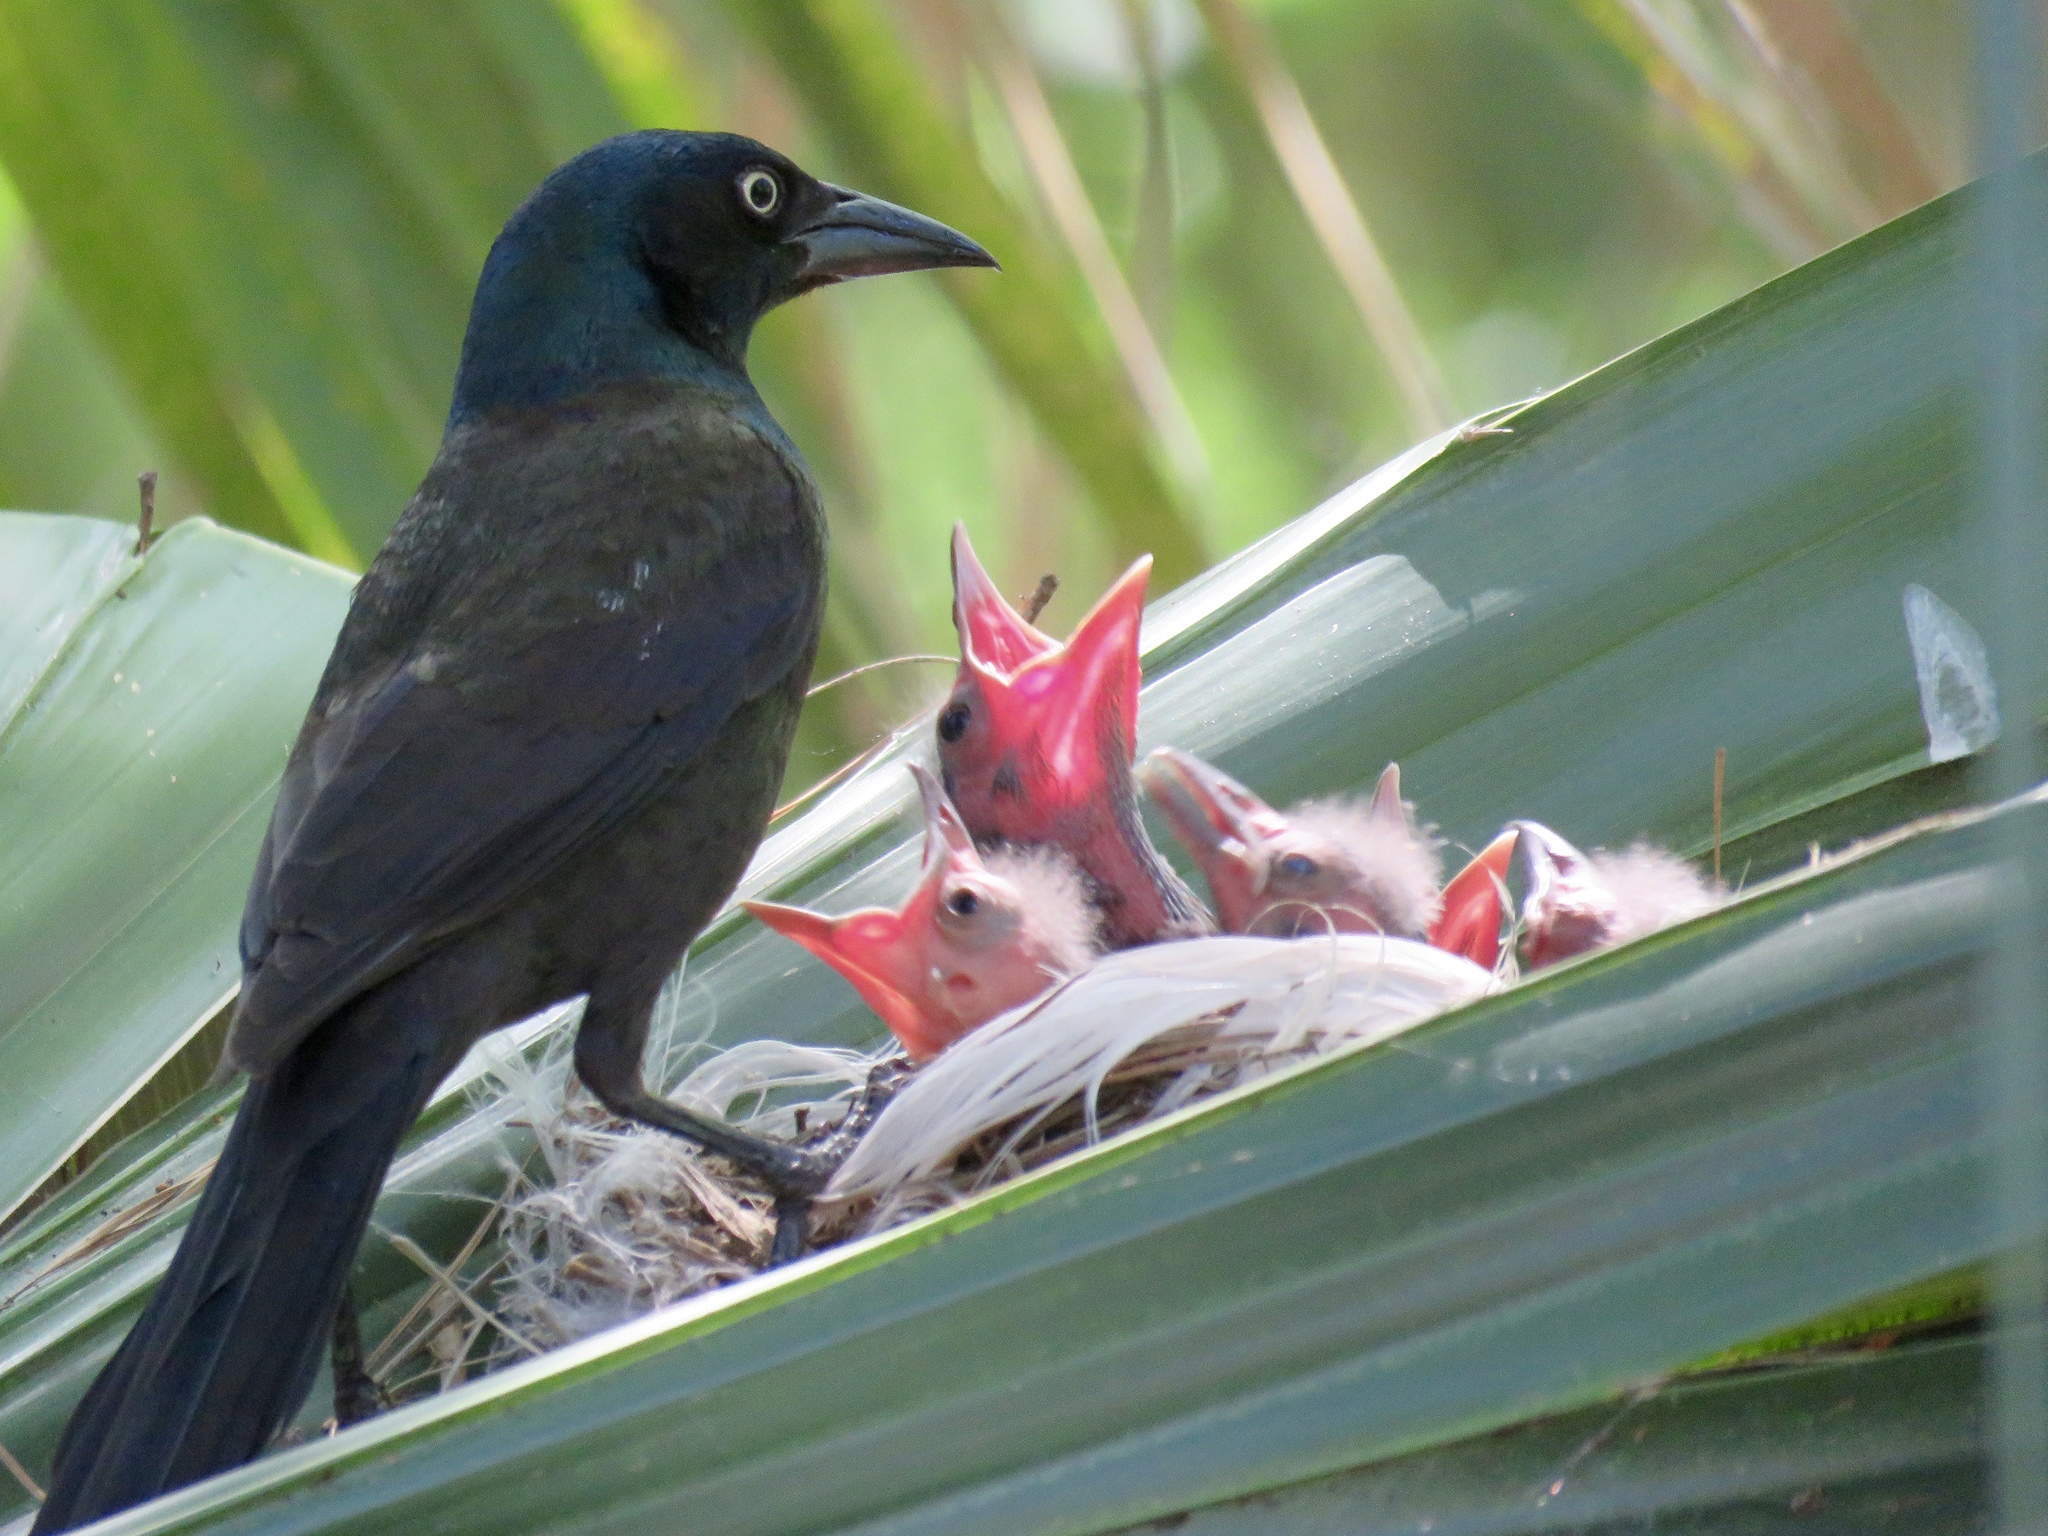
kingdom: Animalia
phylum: Chordata
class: Aves
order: Passeriformes
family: Icteridae
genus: Quiscalus
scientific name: Quiscalus quiscula
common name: Common grackle
